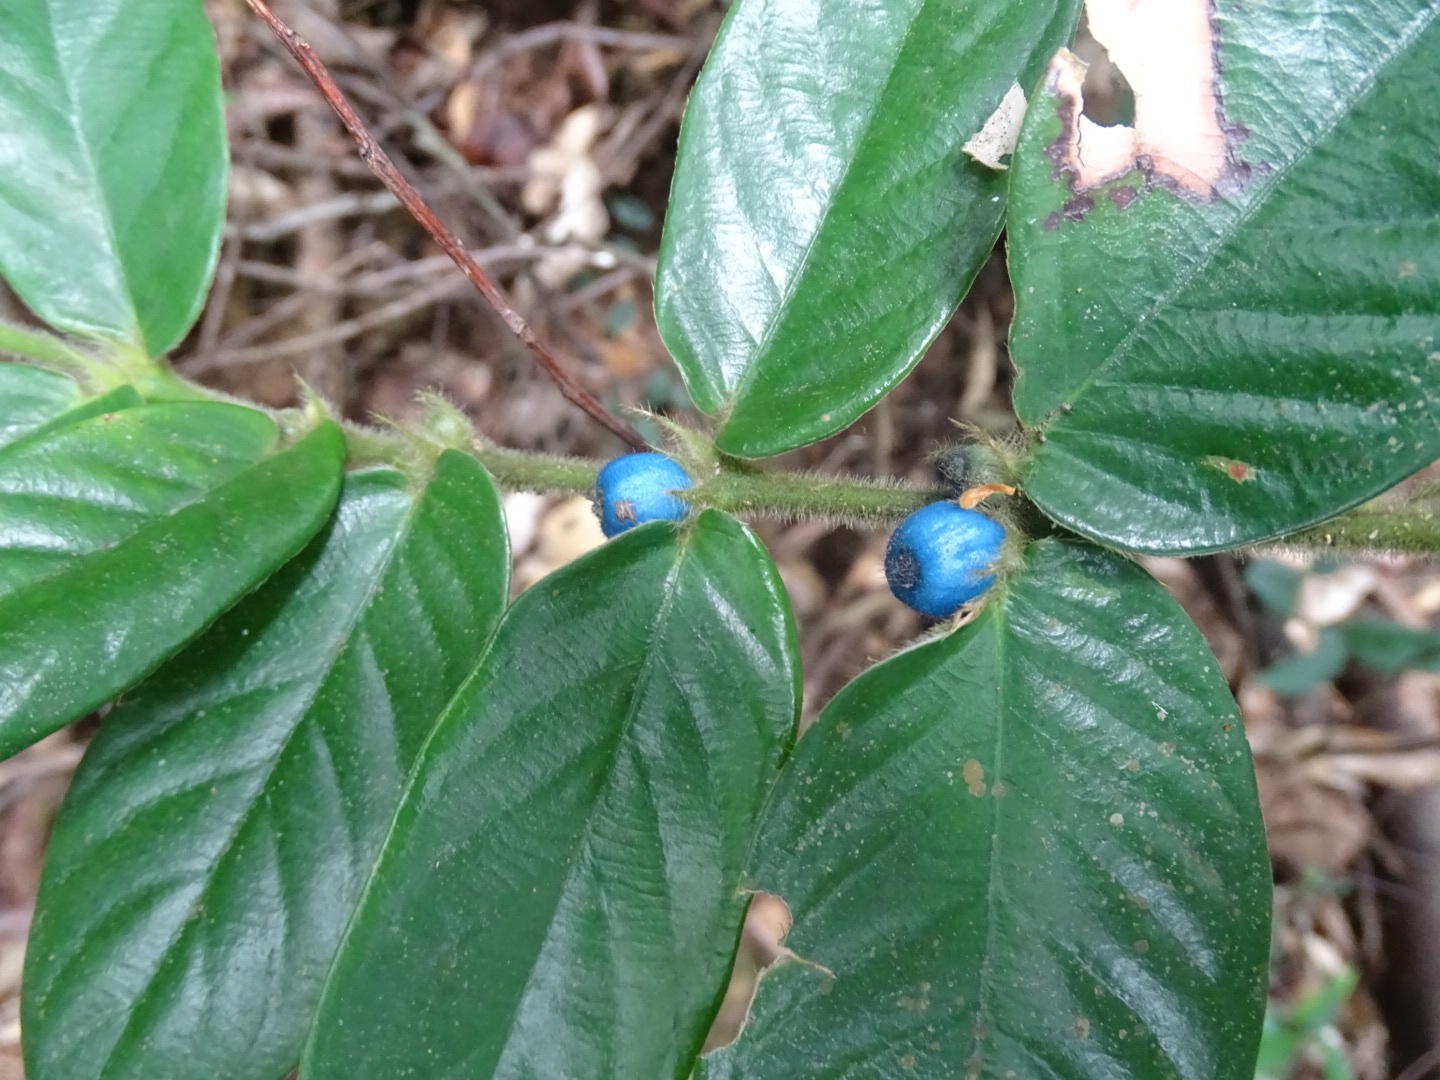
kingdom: Plantae
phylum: Tracheophyta
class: Magnoliopsida
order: Gentianales
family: Rubiaceae
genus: Lasianthus
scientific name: Lasianthus attenuatus
